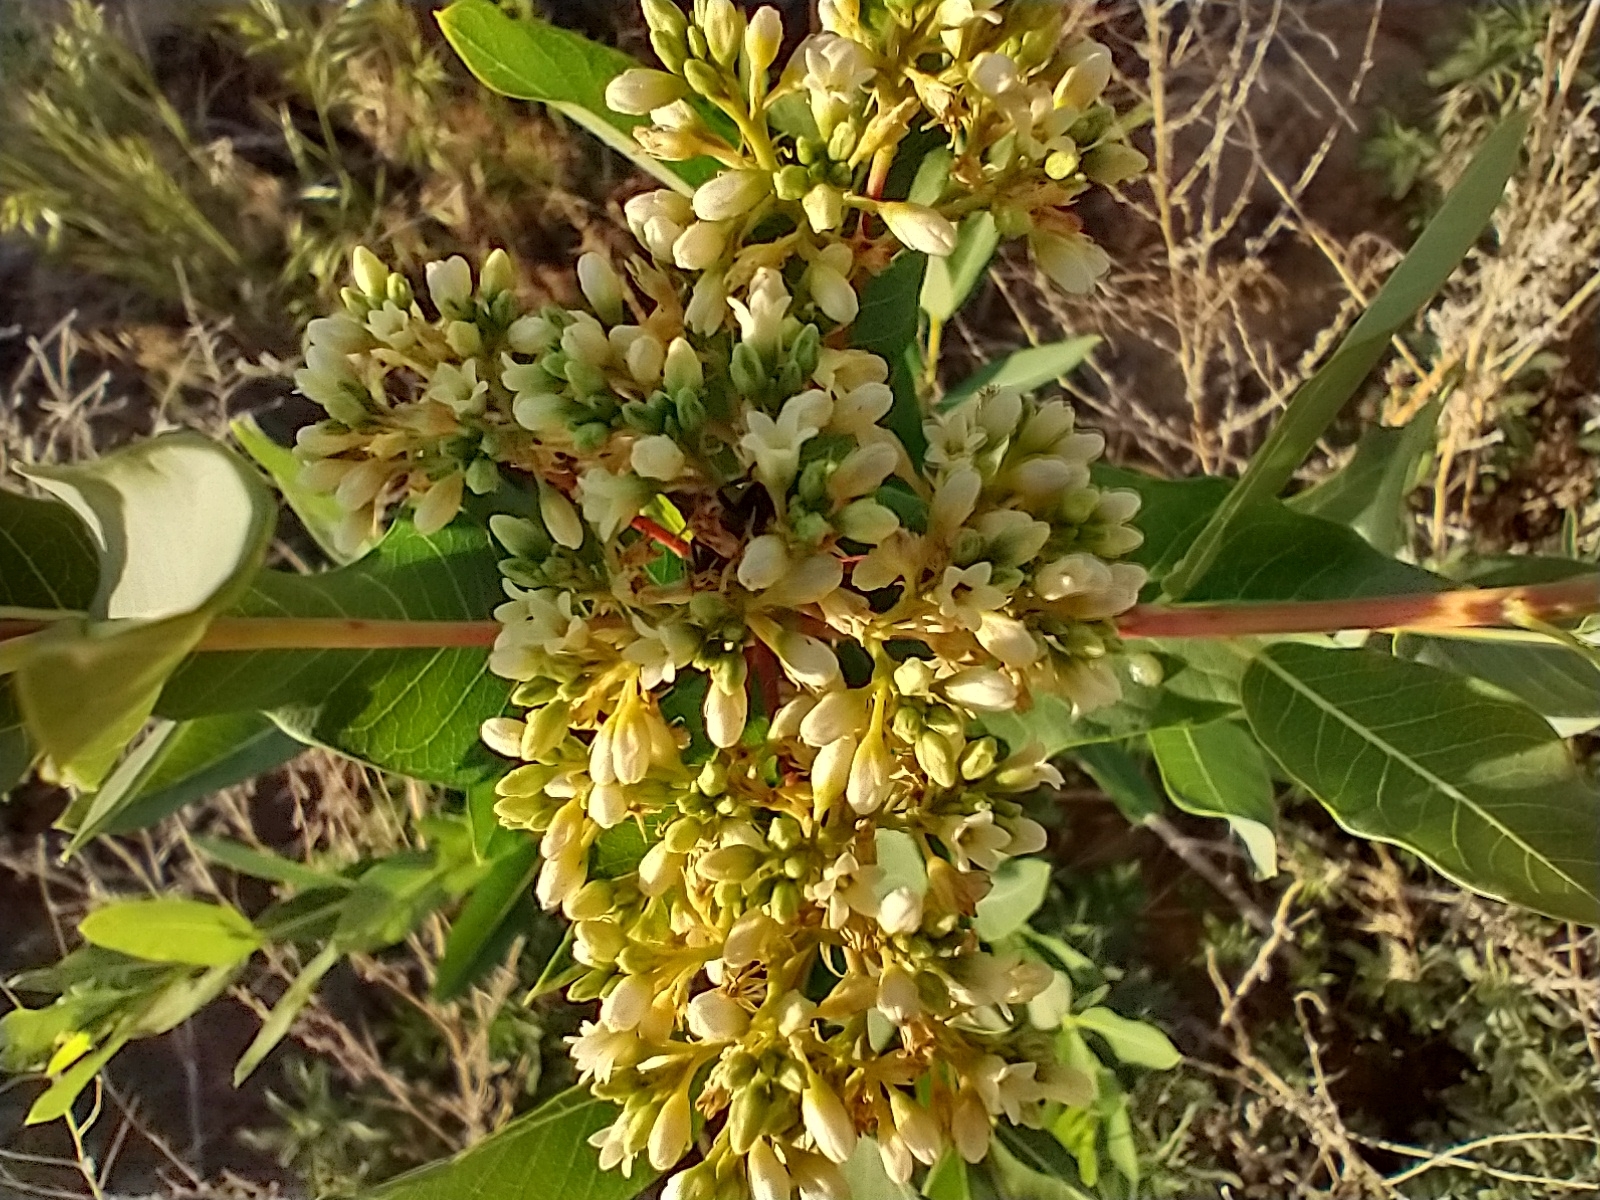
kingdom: Plantae
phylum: Tracheophyta
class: Magnoliopsida
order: Gentianales
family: Apocynaceae
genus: Apocynum
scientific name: Apocynum cannabinum
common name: Hemp dogbane
